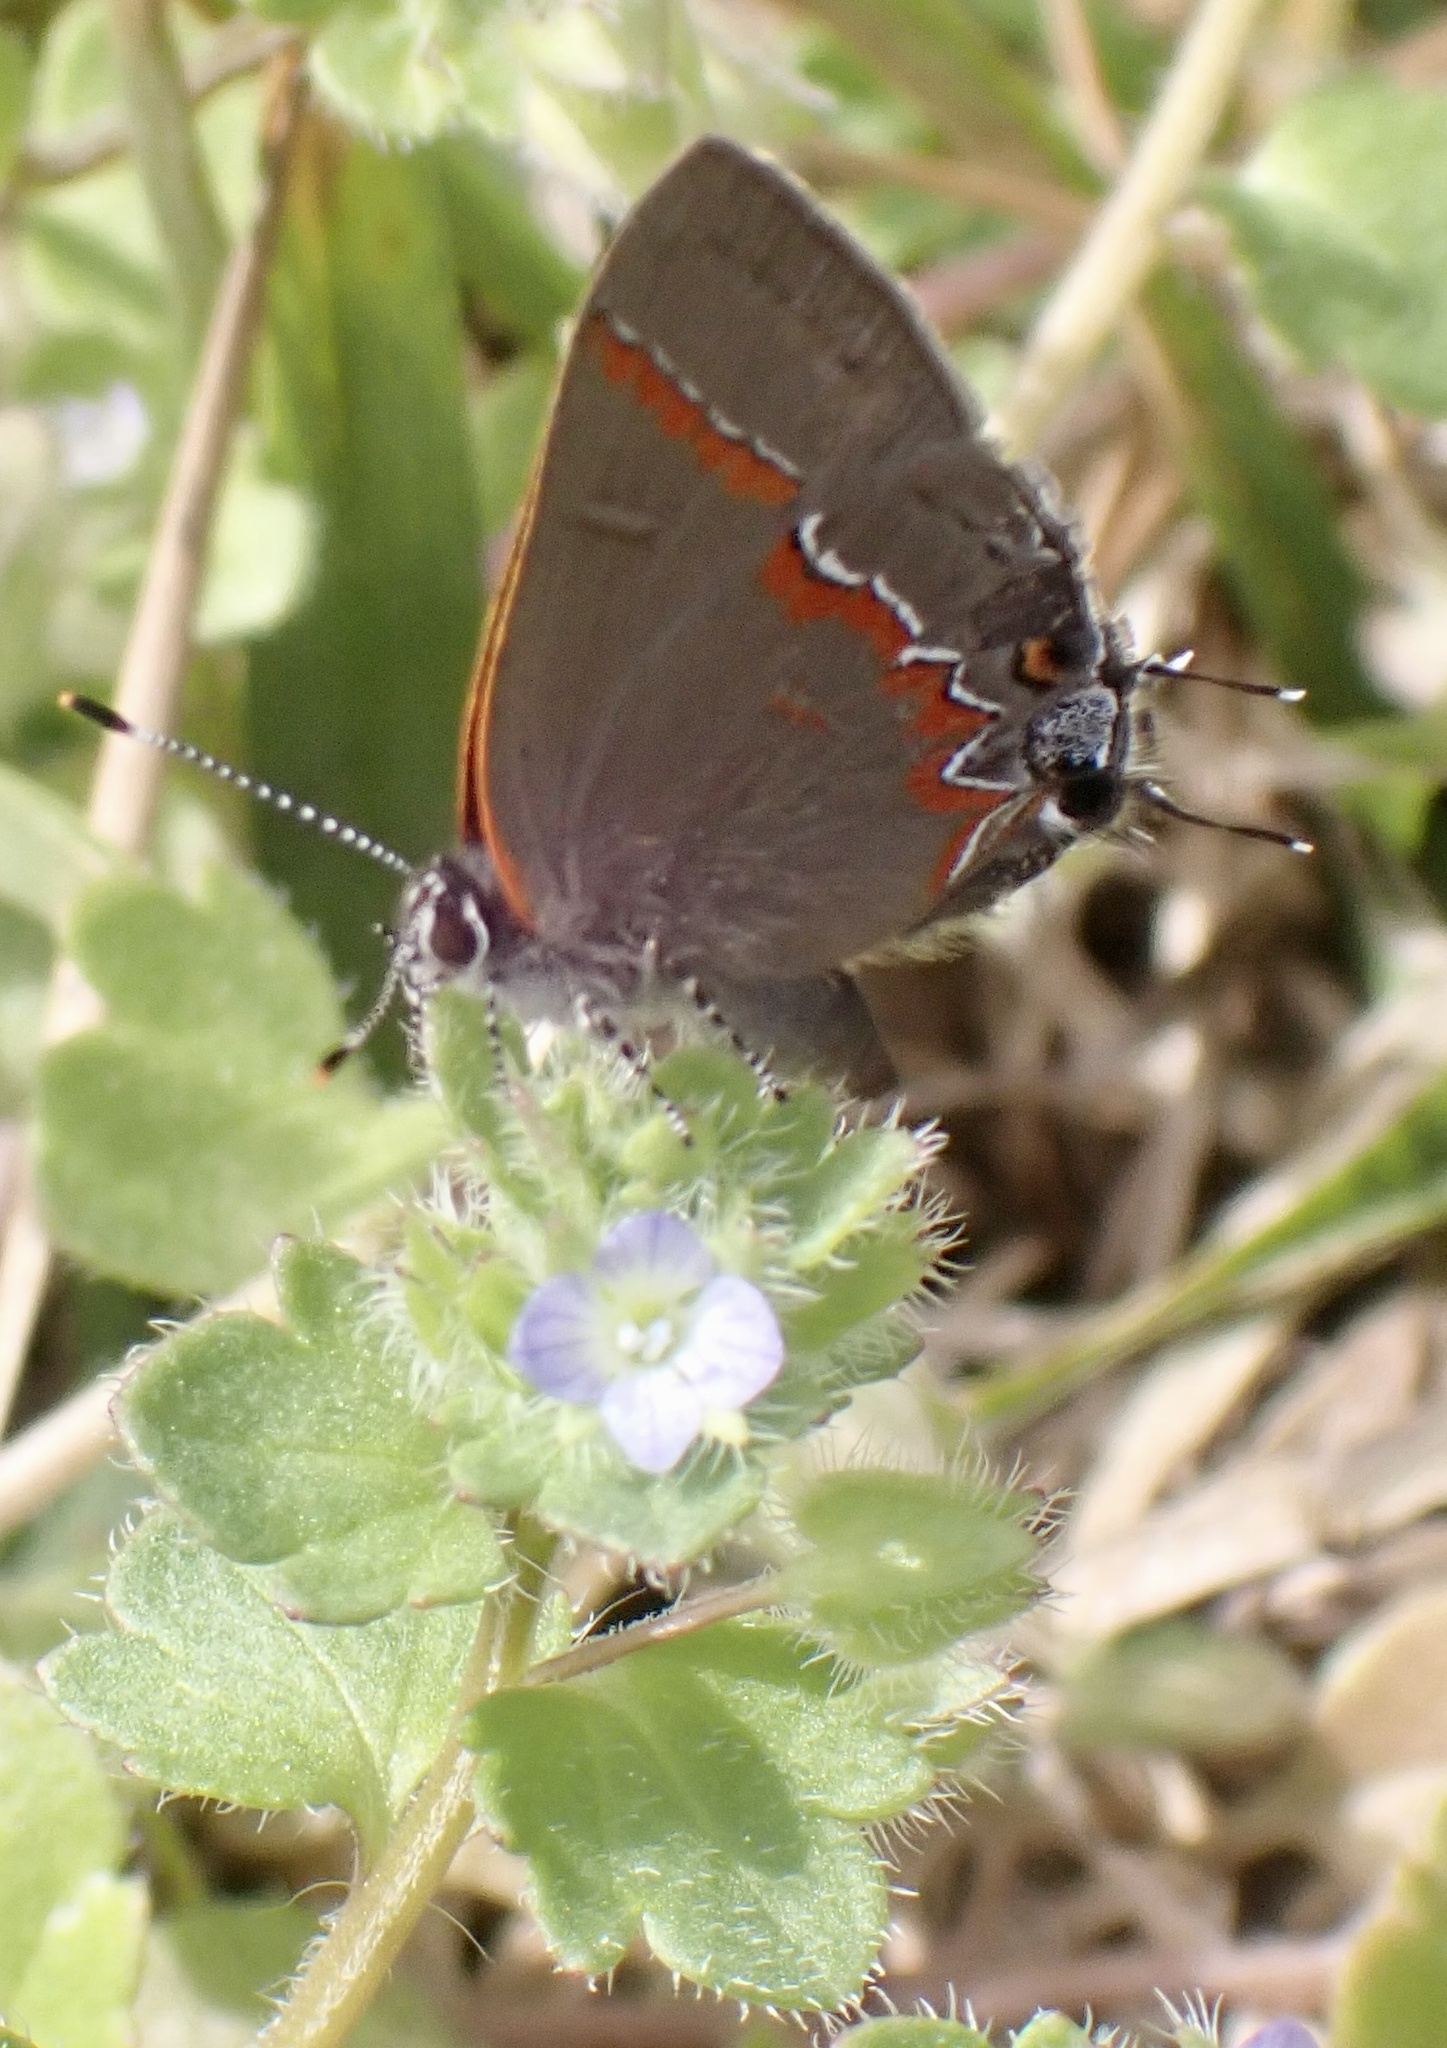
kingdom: Animalia
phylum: Arthropoda
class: Insecta
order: Lepidoptera
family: Lycaenidae
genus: Calycopis
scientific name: Calycopis cecrops
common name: Red-banded hairstreak
